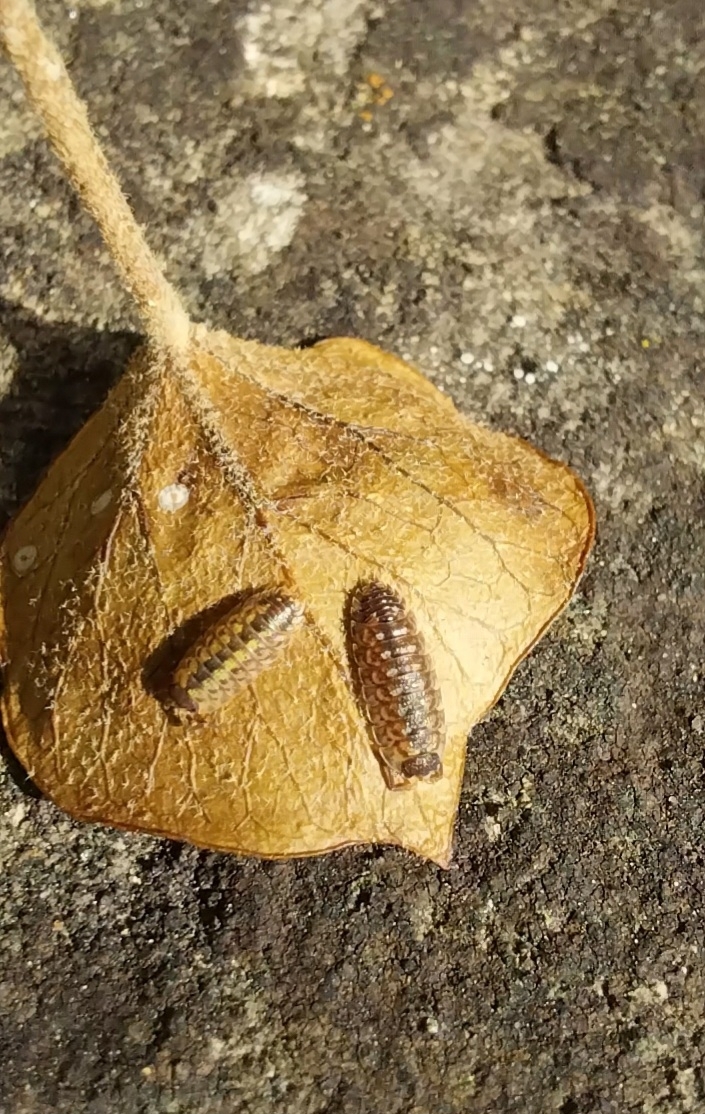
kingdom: Animalia
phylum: Arthropoda
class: Malacostraca
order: Isopoda
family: Porcellionidae
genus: Porcellio
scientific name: Porcellio spinicornis
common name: Painted woodlouse
